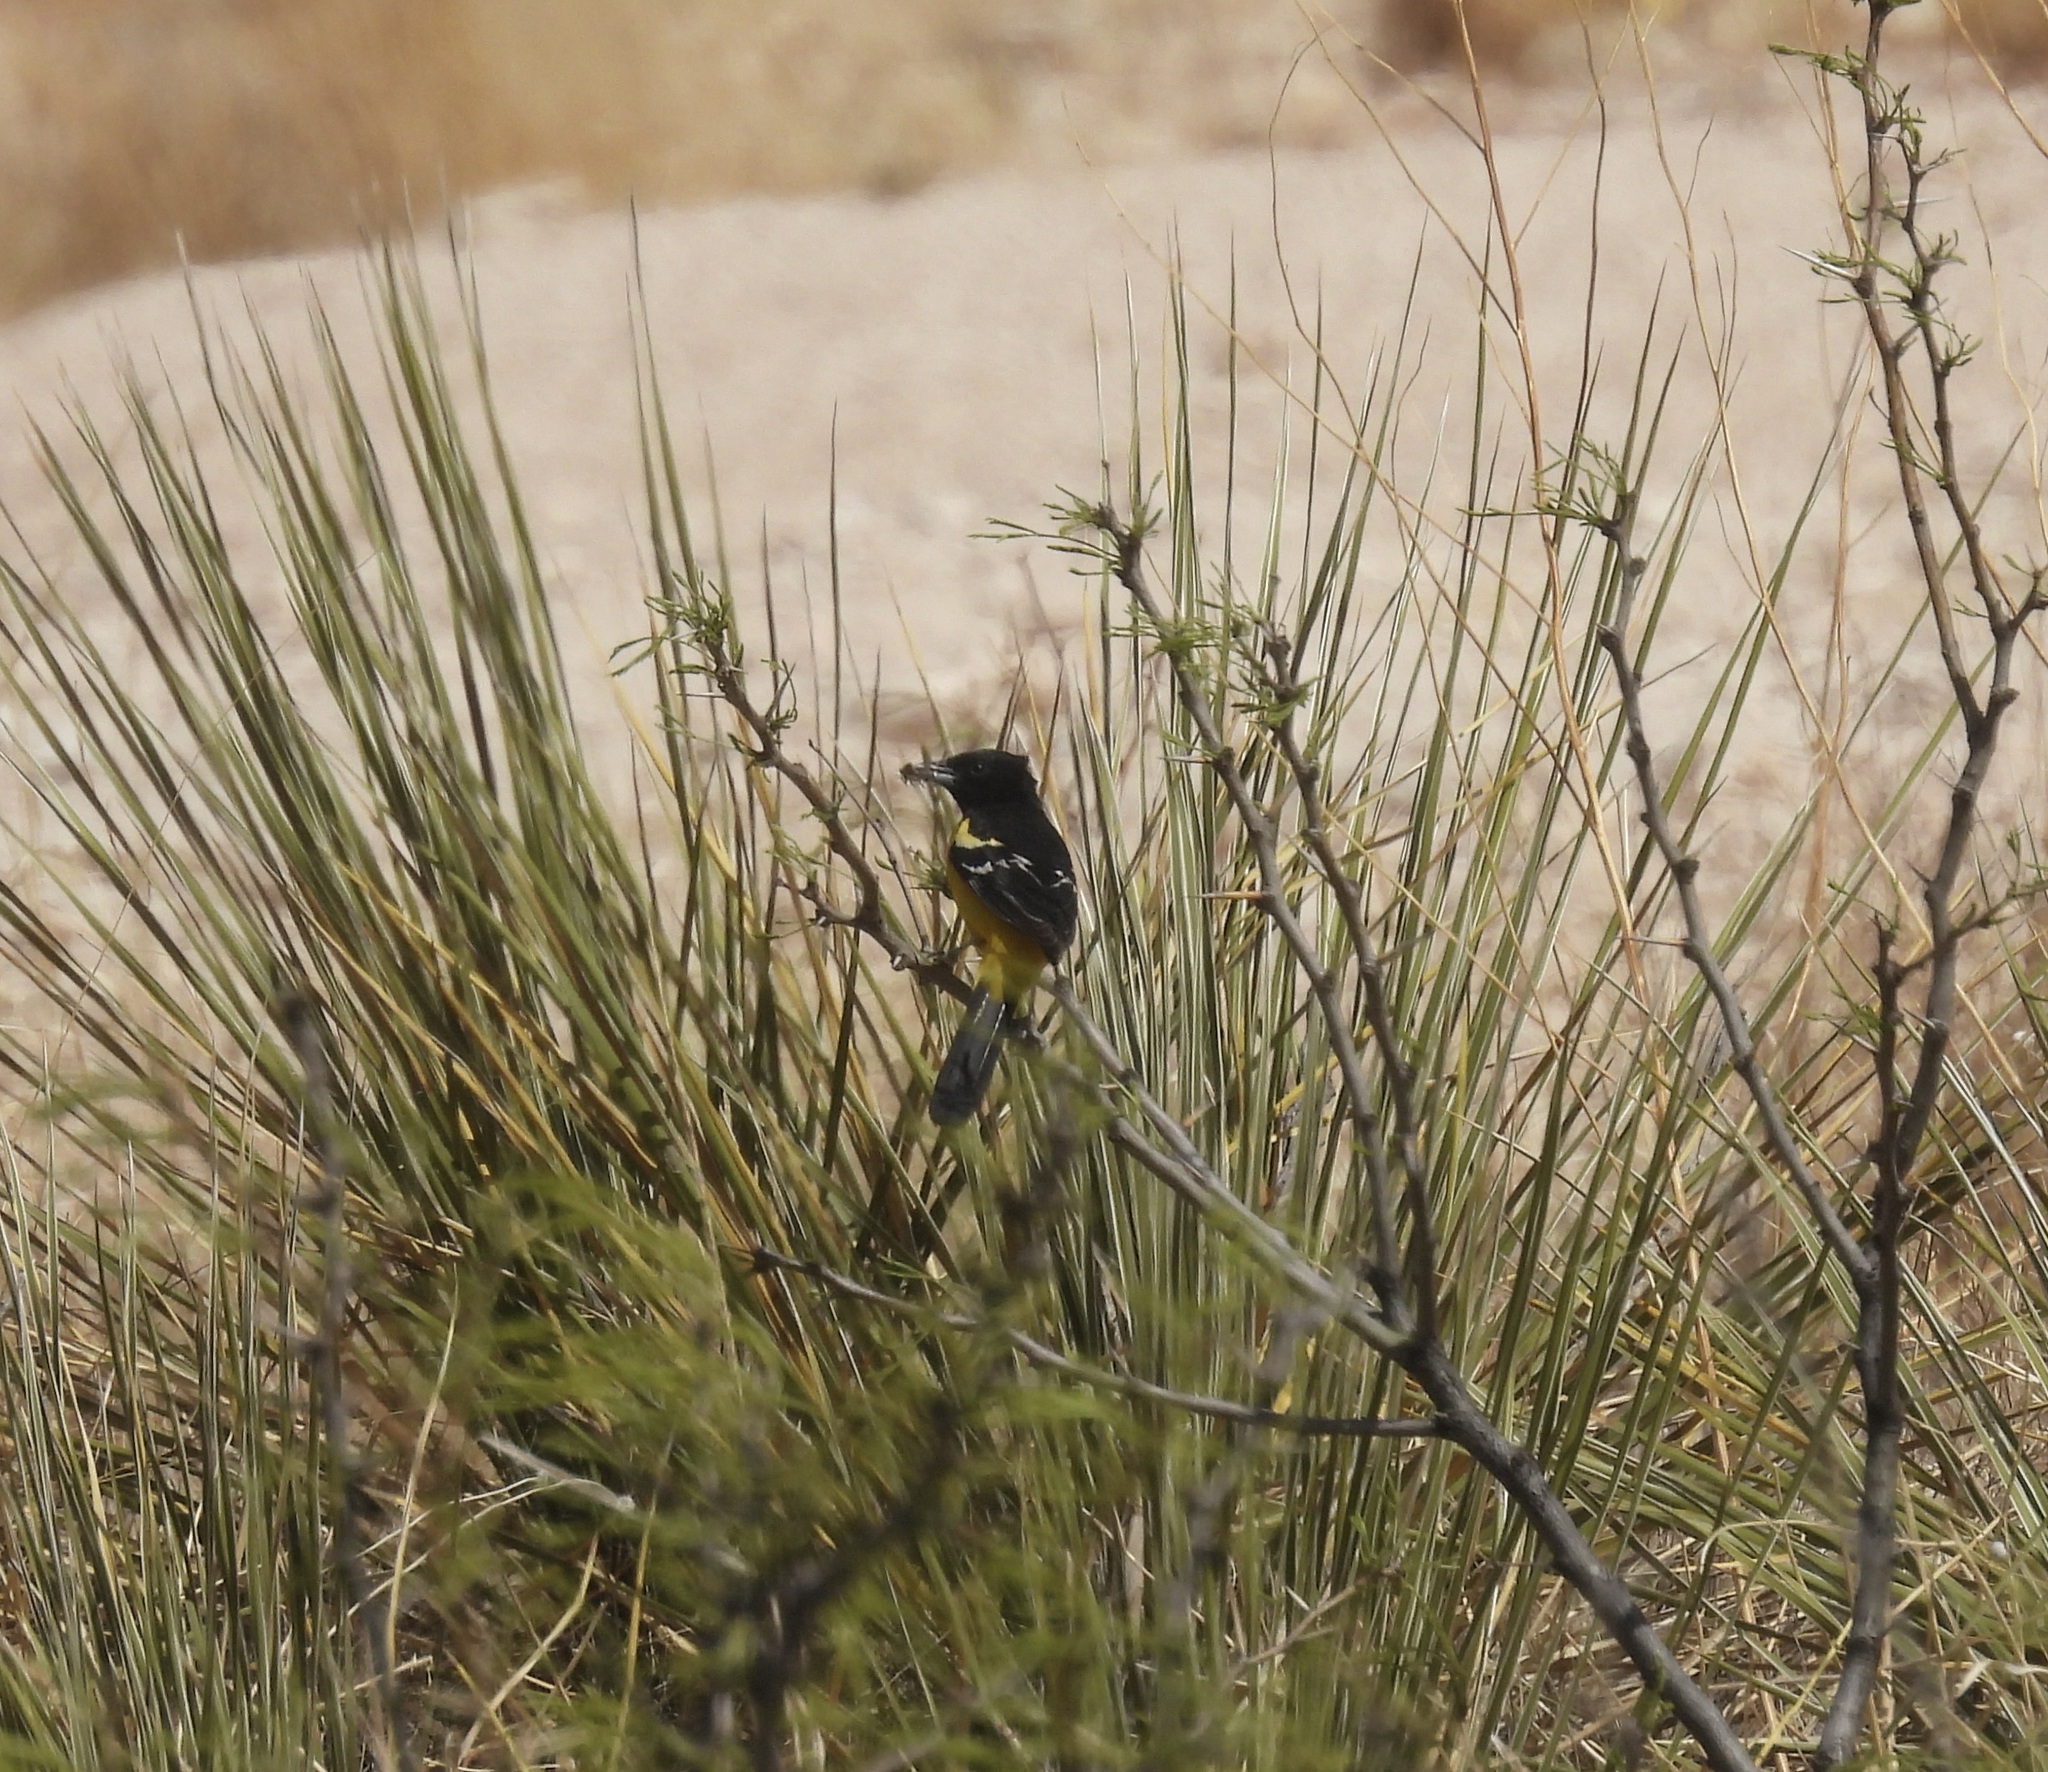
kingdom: Animalia
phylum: Chordata
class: Aves
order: Passeriformes
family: Icteridae
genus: Icterus
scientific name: Icterus parisorum
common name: Scott's oriole
